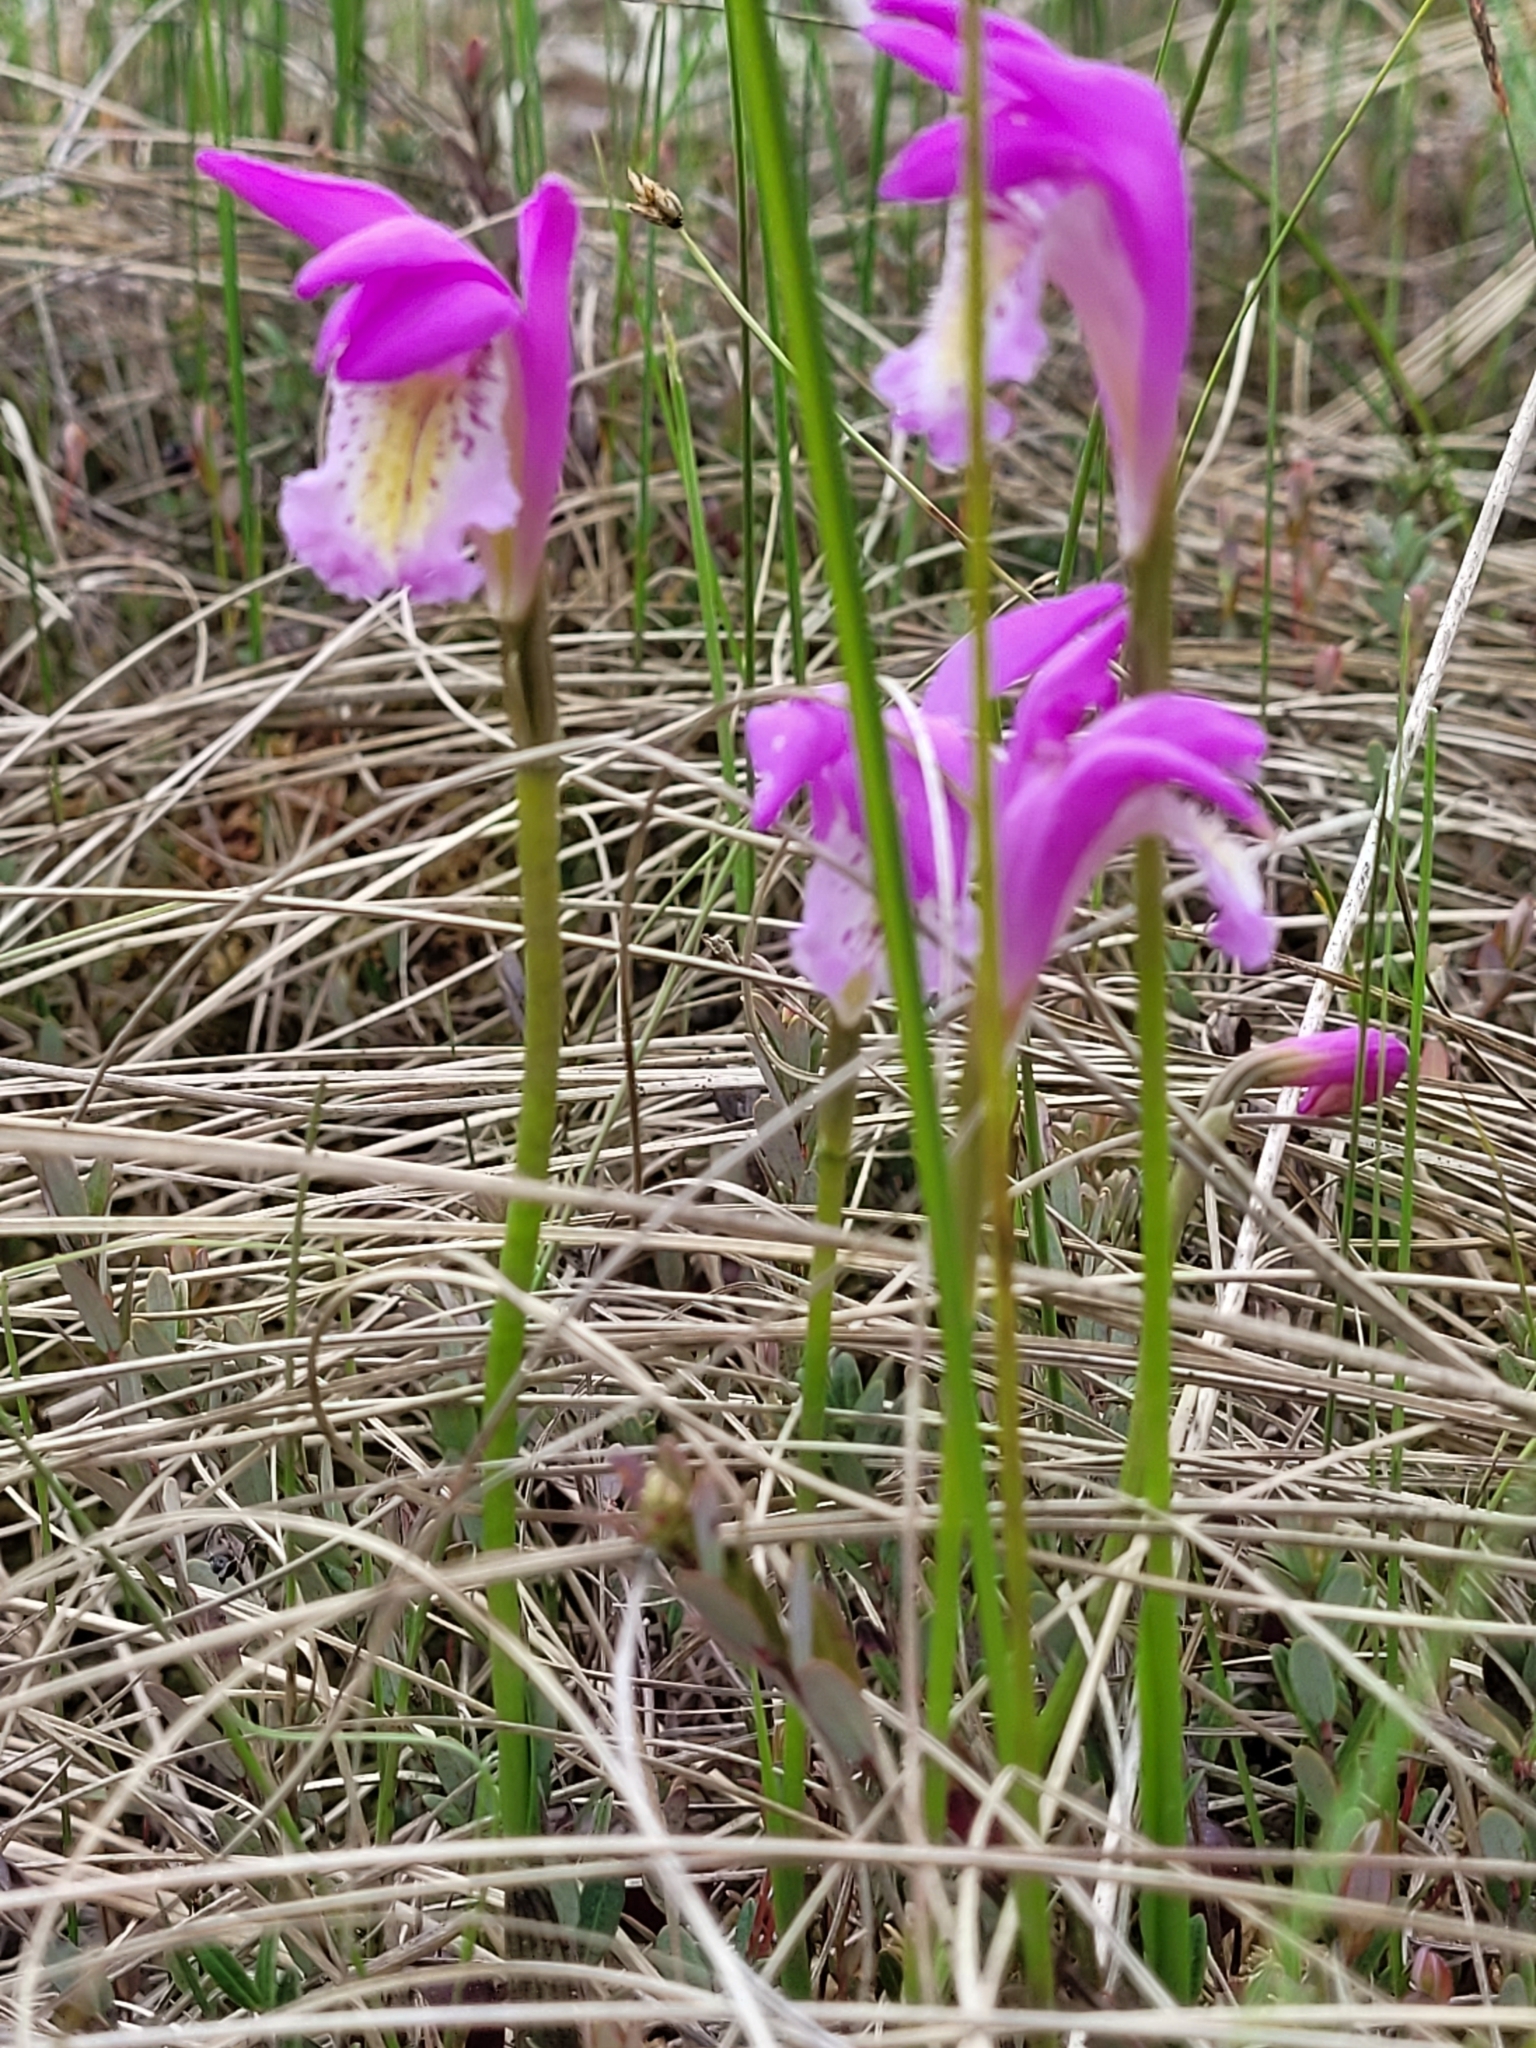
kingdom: Plantae
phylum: Tracheophyta
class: Liliopsida
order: Asparagales
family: Orchidaceae
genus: Arethusa
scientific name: Arethusa bulbosa
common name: Arethusa
